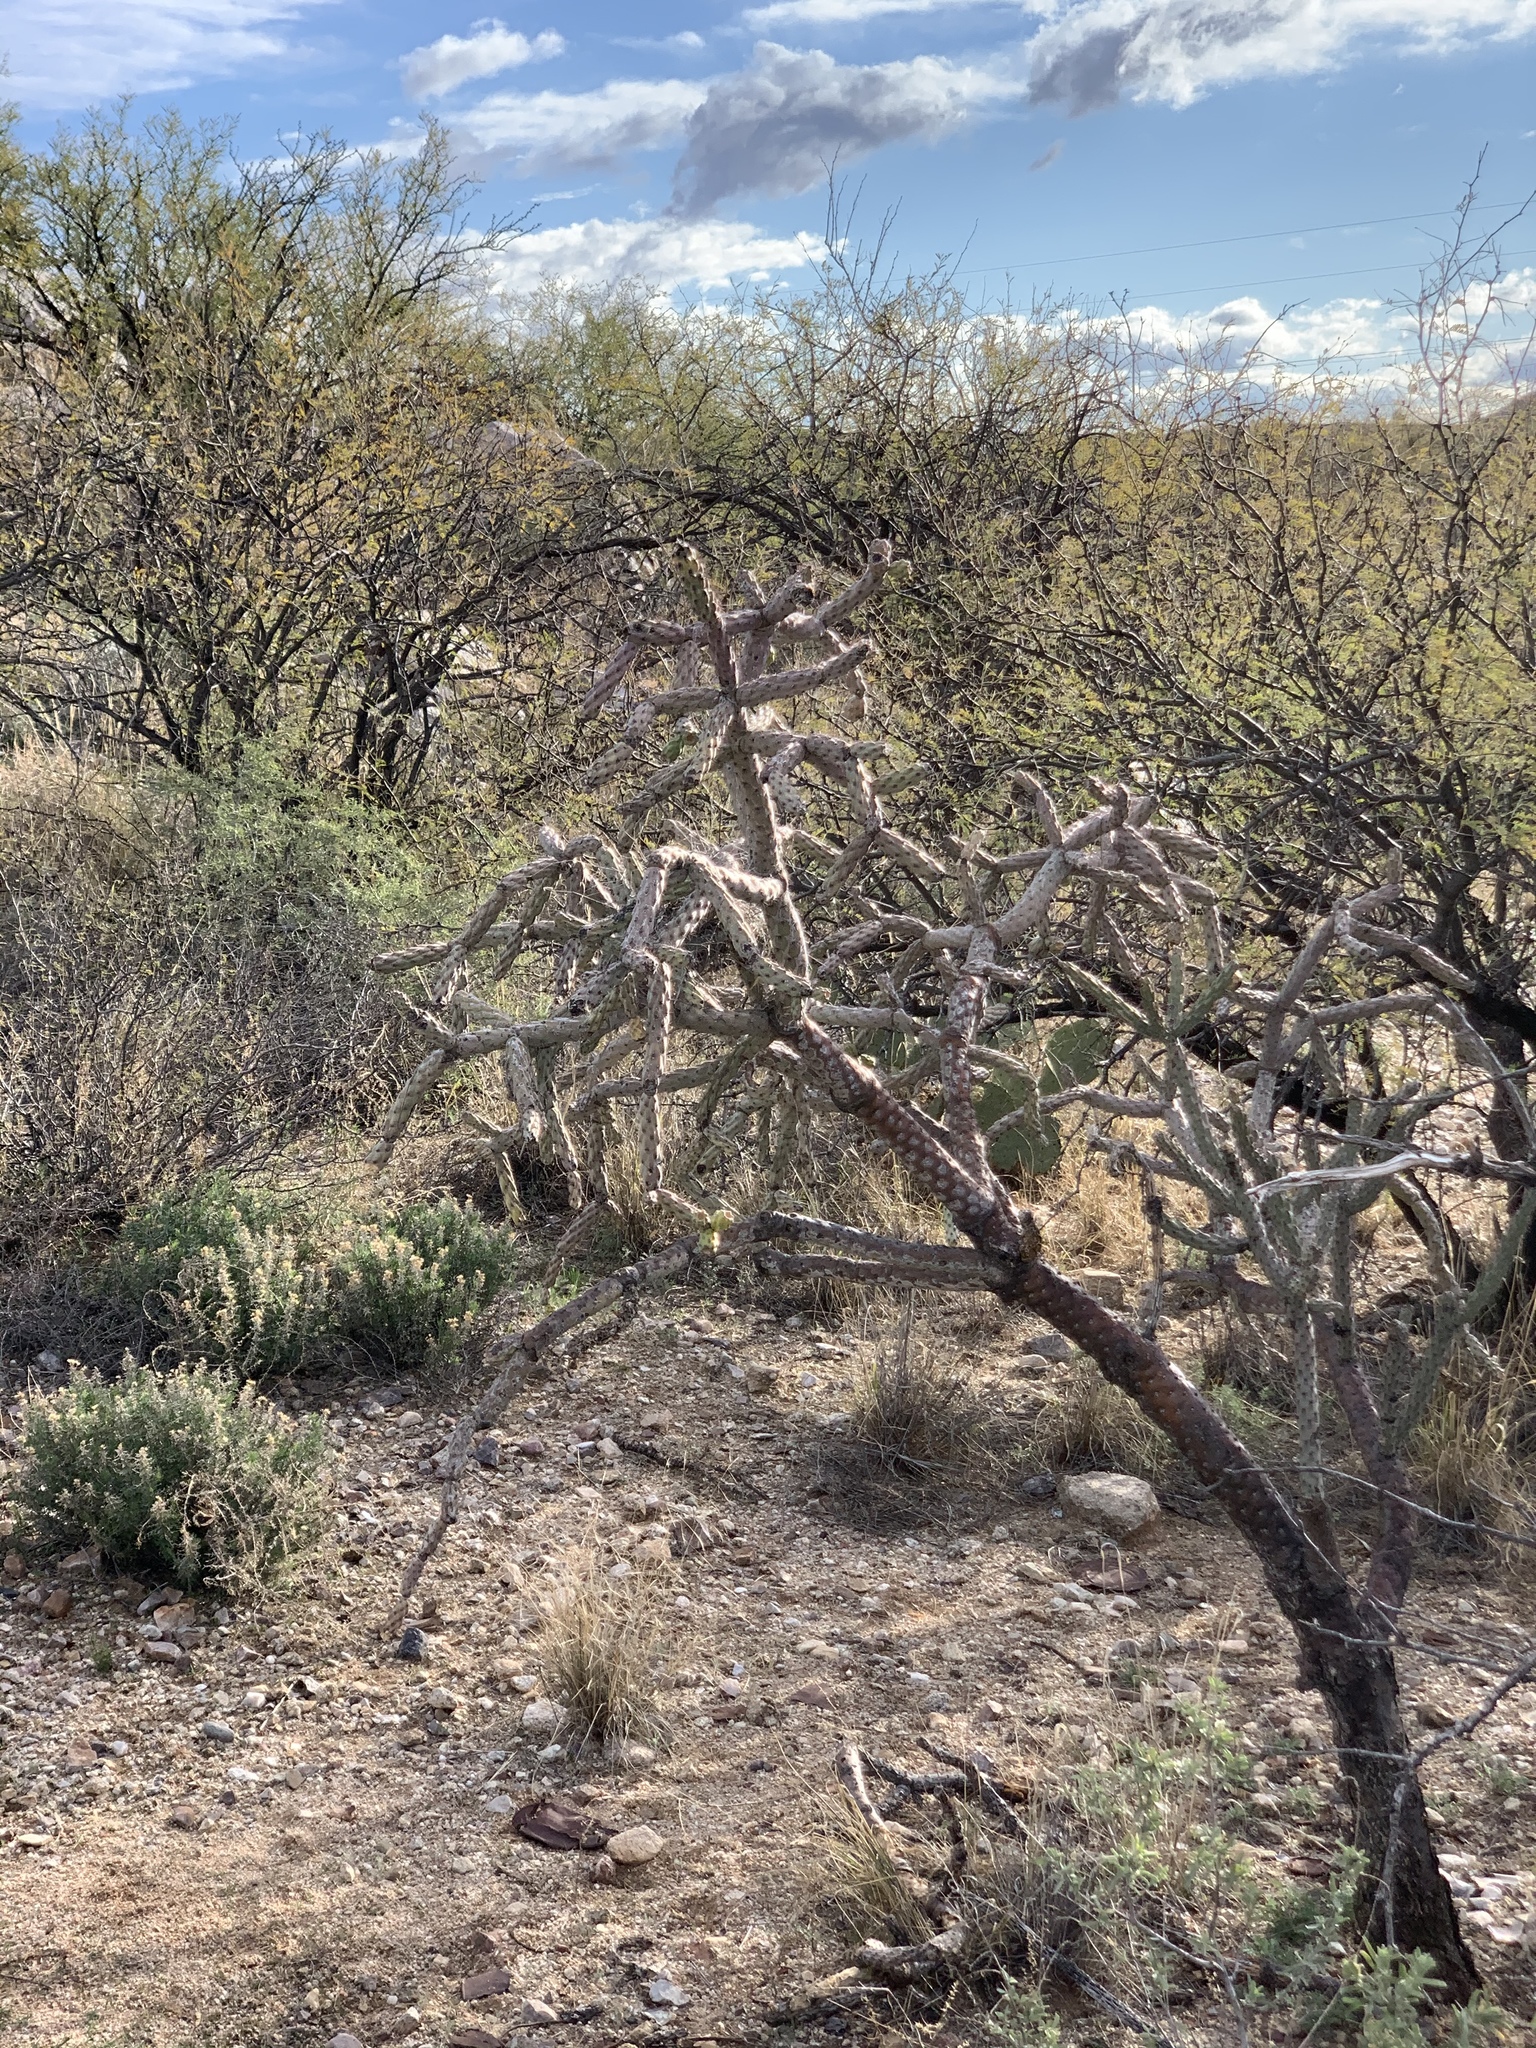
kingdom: Plantae
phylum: Tracheophyta
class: Magnoliopsida
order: Caryophyllales
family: Cactaceae
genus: Cylindropuntia
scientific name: Cylindropuntia thurberi
